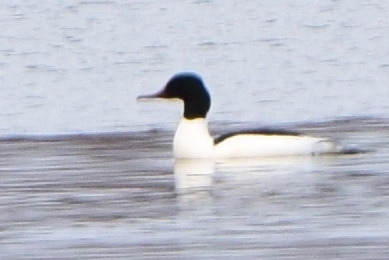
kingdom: Animalia
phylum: Chordata
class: Aves
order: Anseriformes
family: Anatidae
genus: Mergus
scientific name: Mergus merganser
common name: Common merganser
